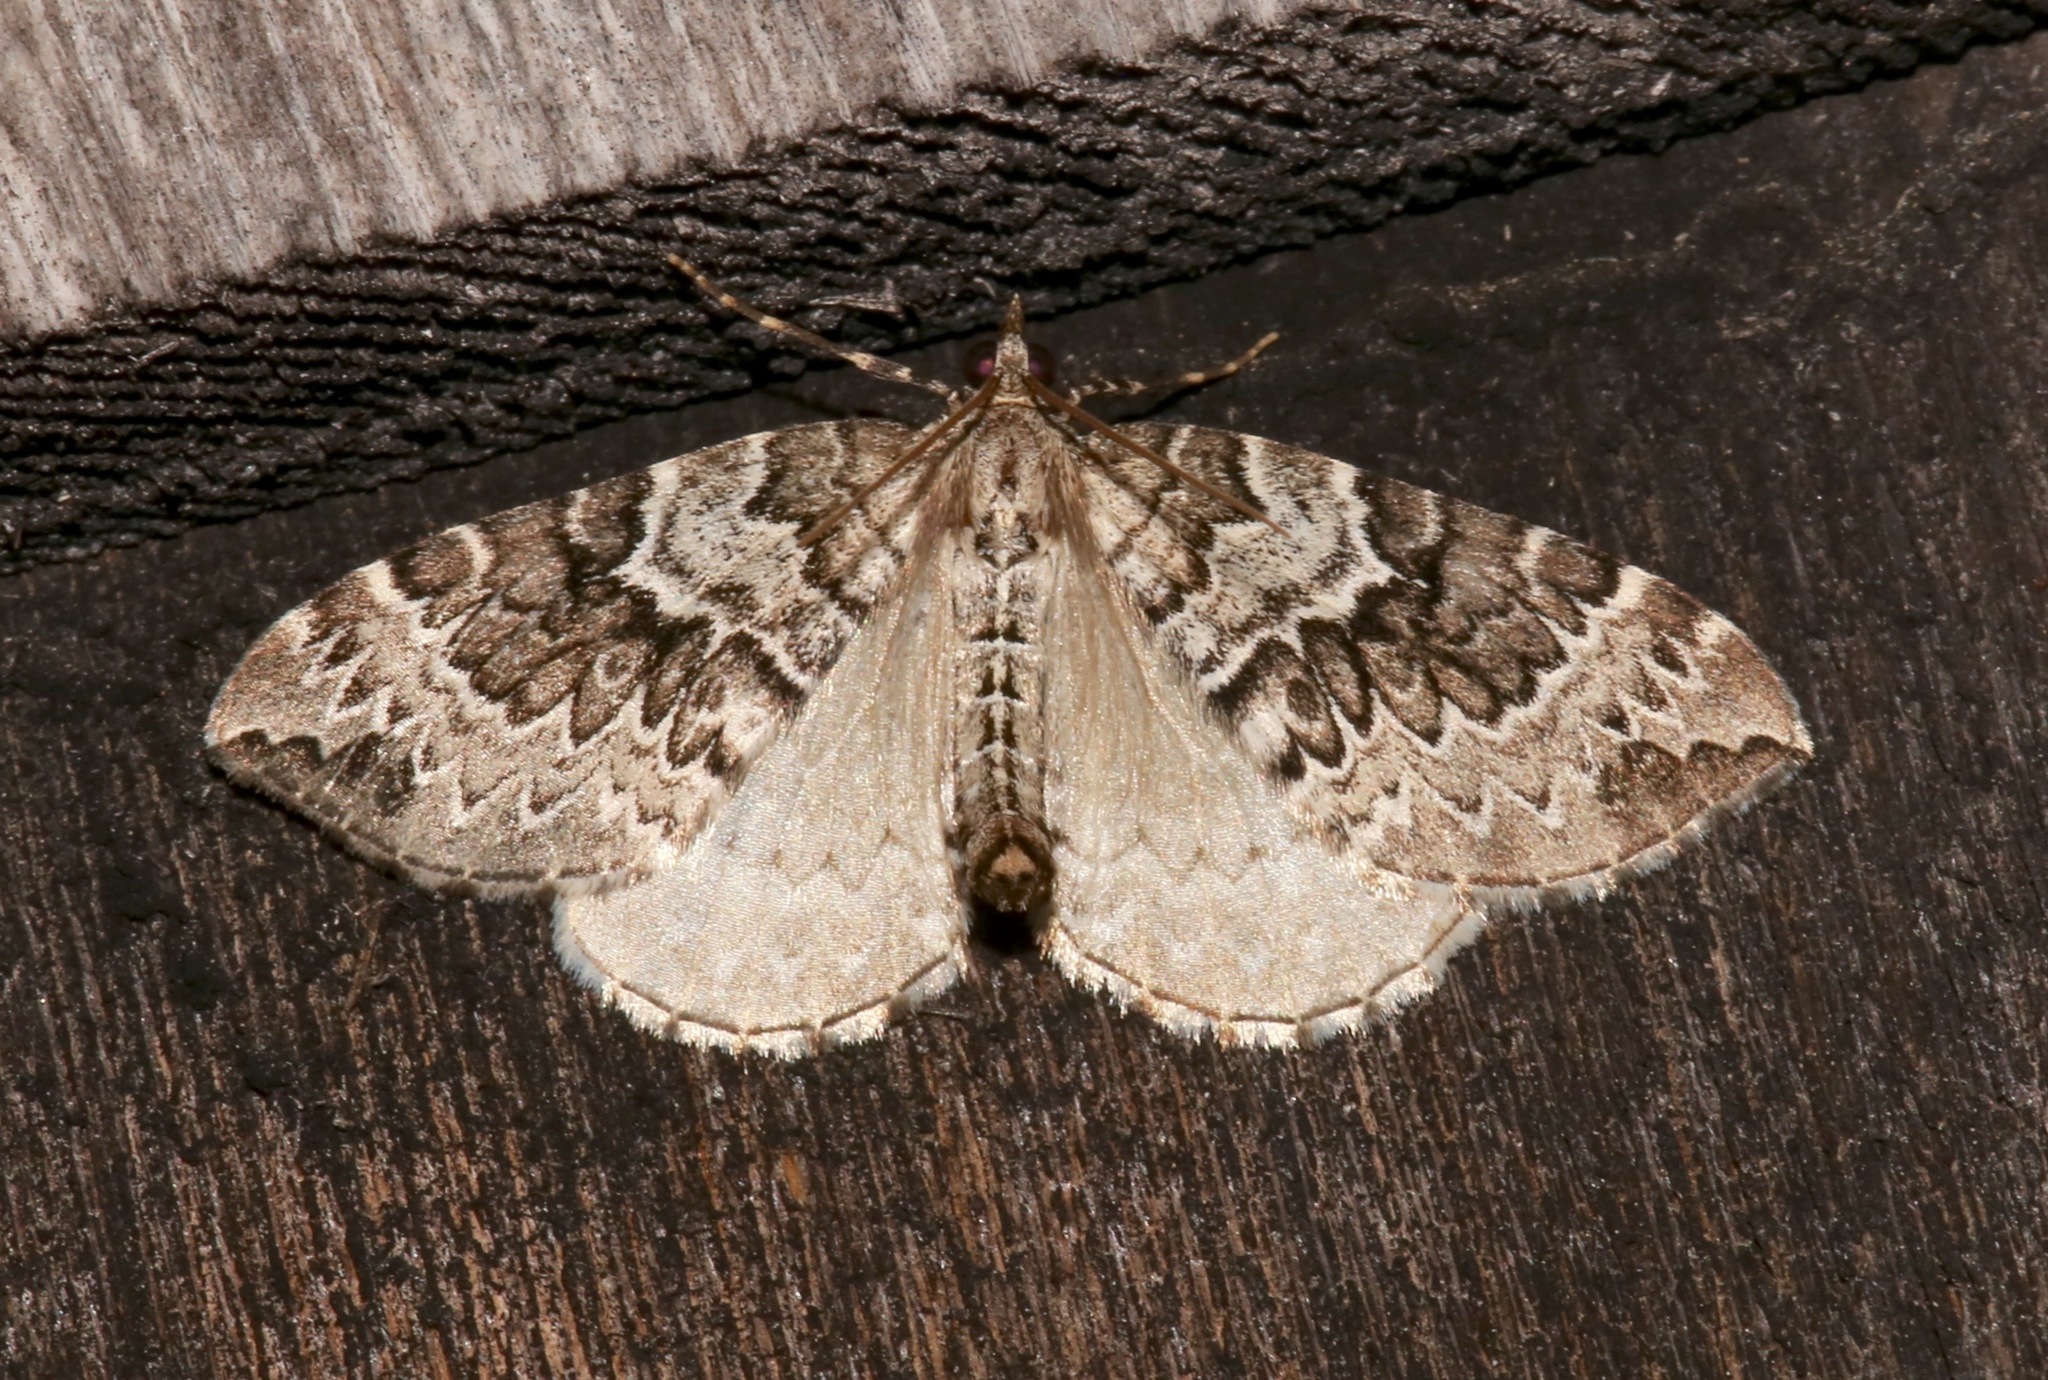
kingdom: Animalia
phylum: Arthropoda
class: Insecta
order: Lepidoptera
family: Geometridae
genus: Eulithis
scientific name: Eulithis explanata
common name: White eulithis
